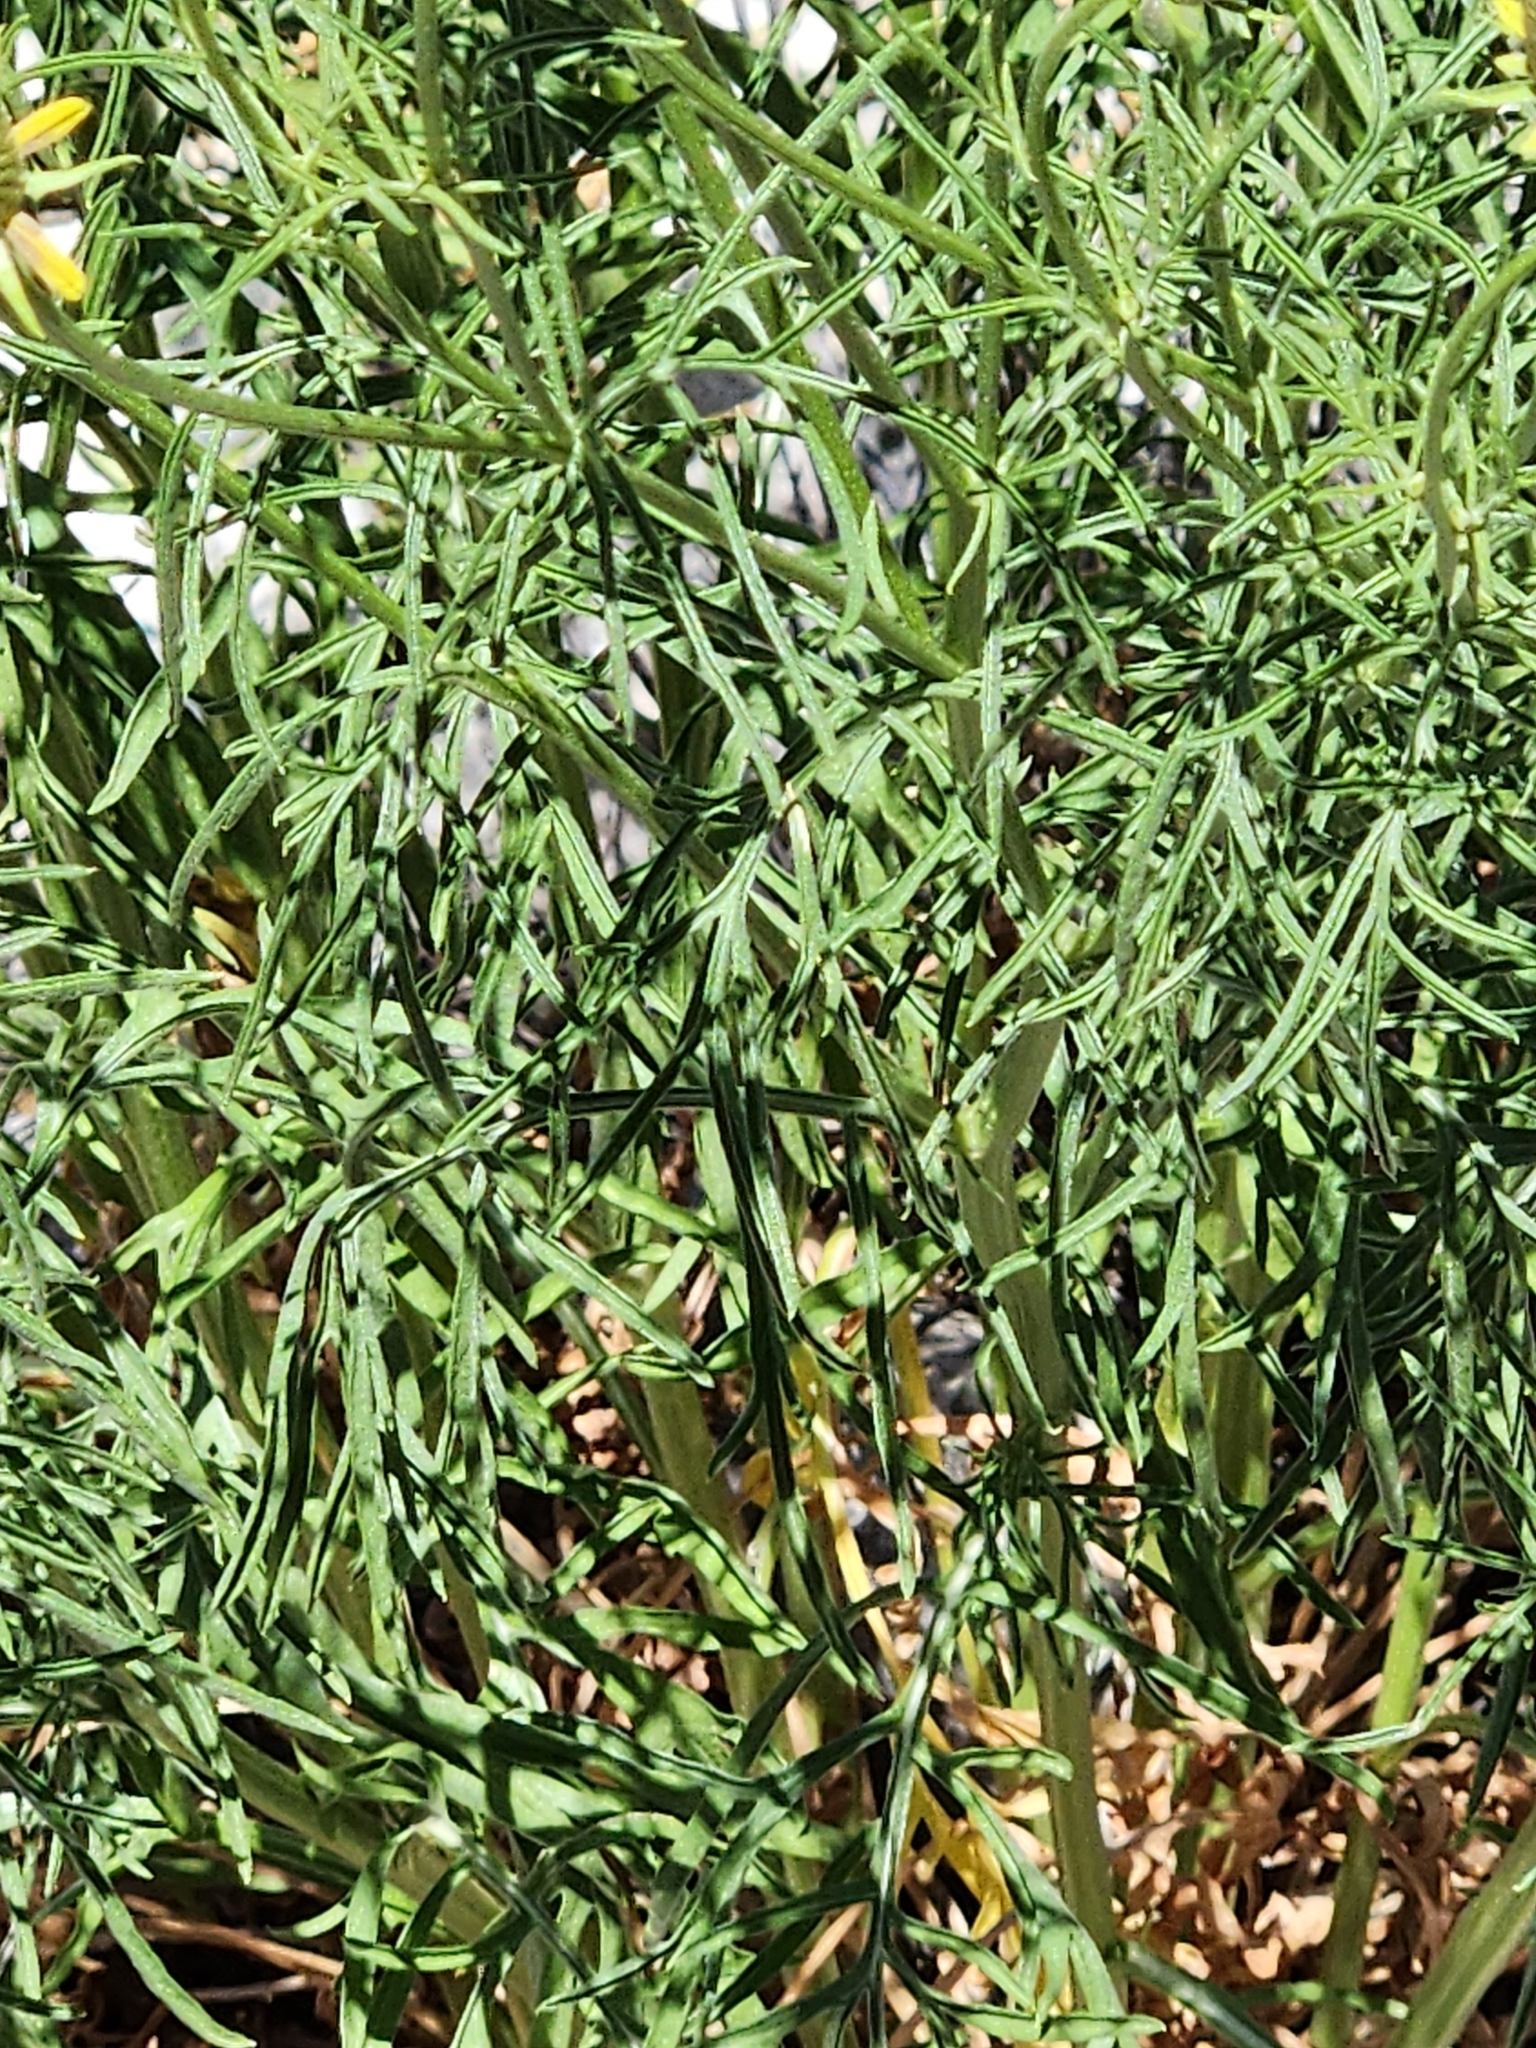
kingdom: Plantae
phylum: Tracheophyta
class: Magnoliopsida
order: Asterales
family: Asteraceae
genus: Ratibida
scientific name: Ratibida columnifera
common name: Prairie coneflower
